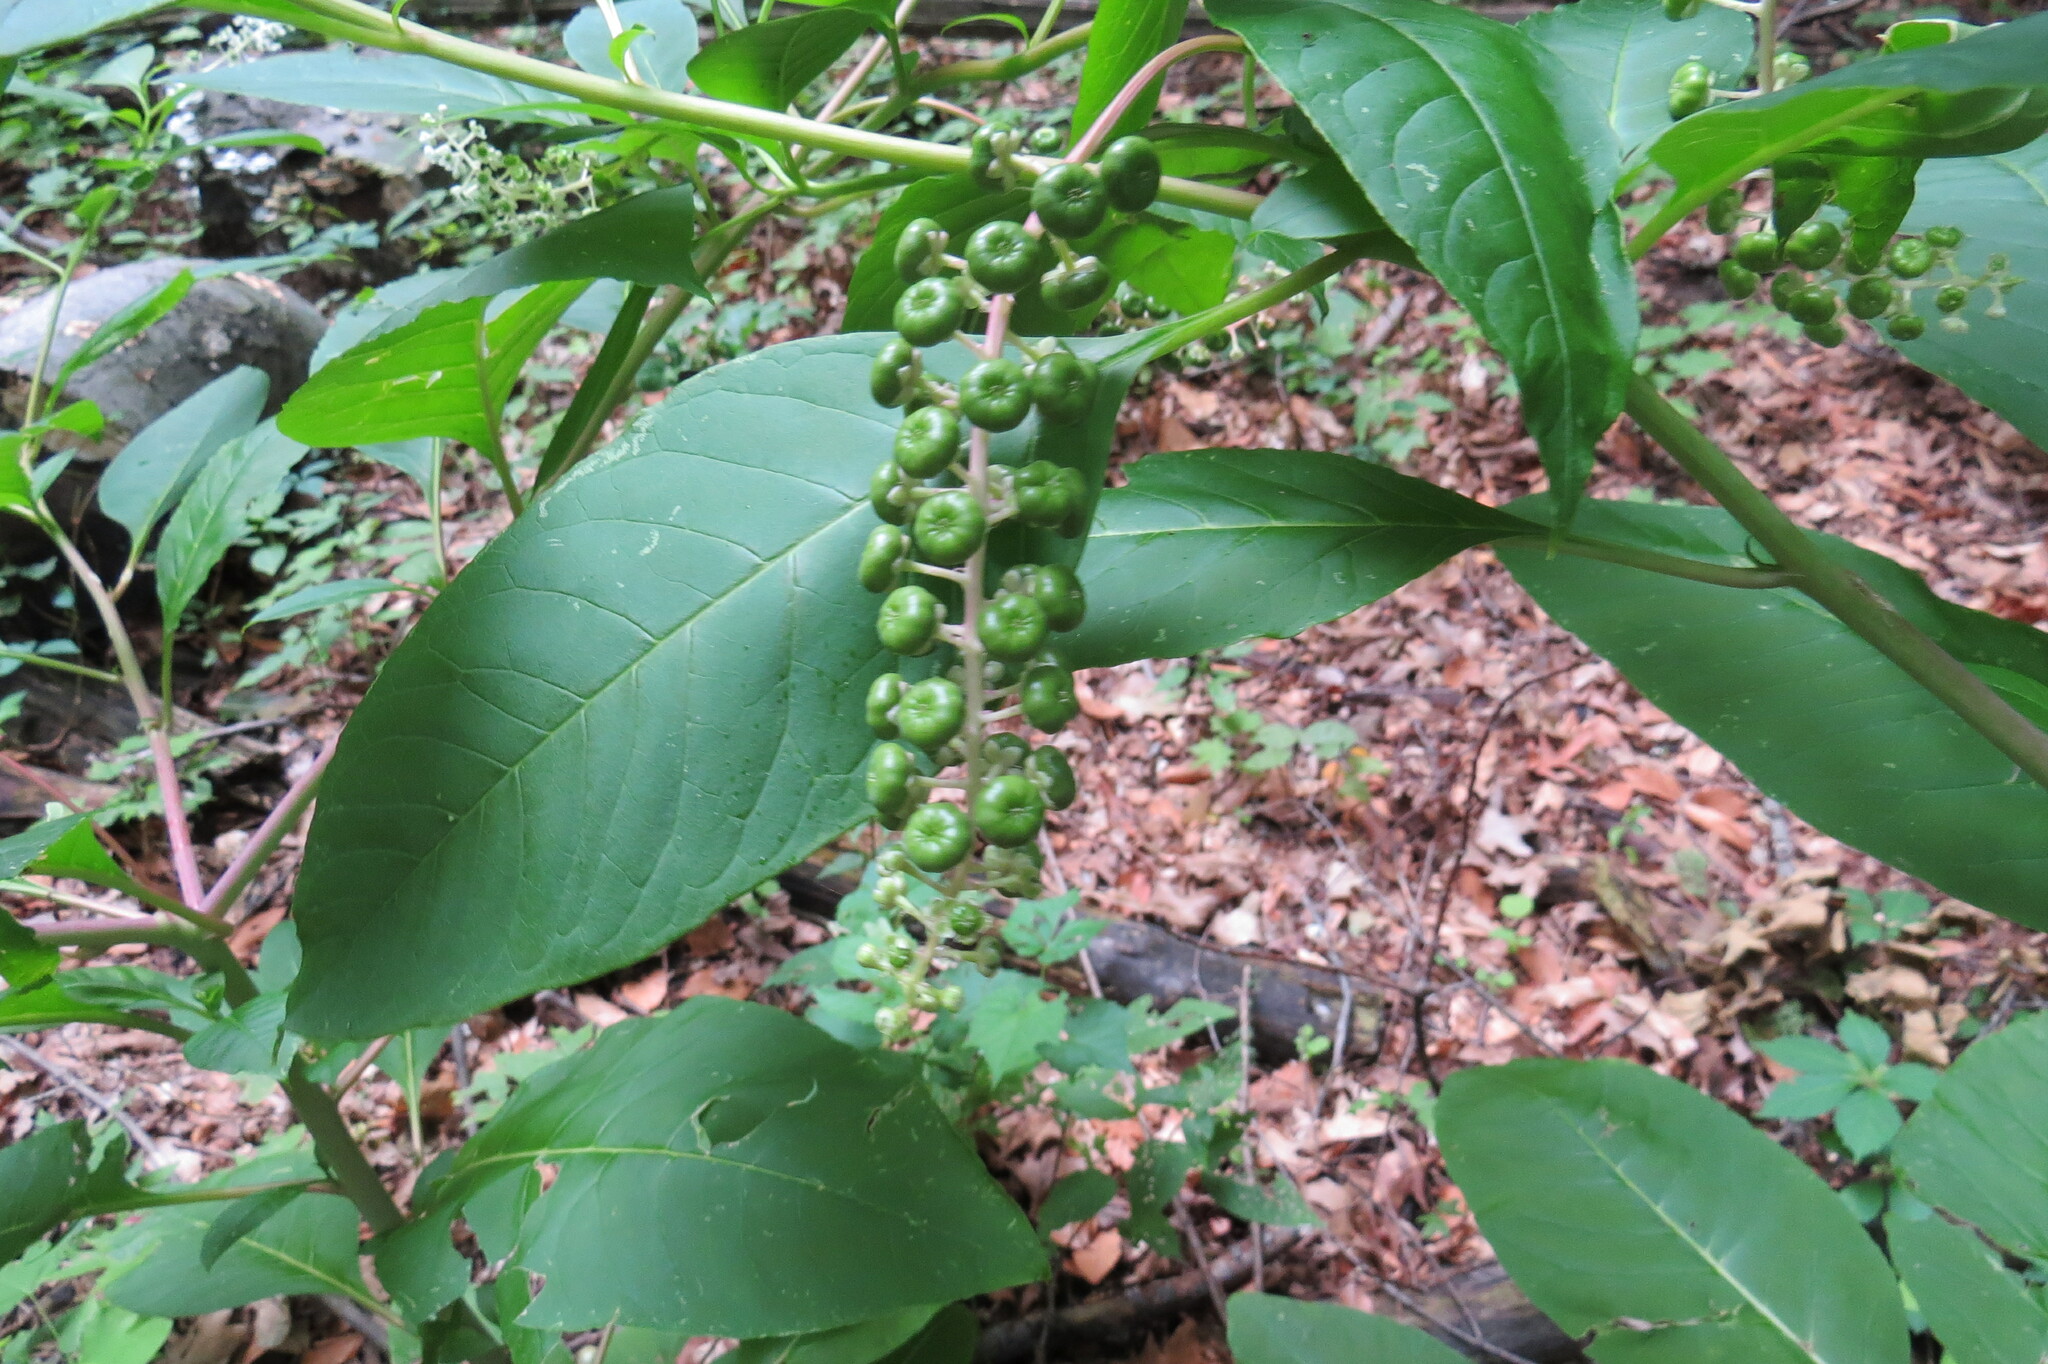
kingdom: Plantae
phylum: Tracheophyta
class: Magnoliopsida
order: Caryophyllales
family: Phytolaccaceae
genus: Phytolacca
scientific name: Phytolacca americana
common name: American pokeweed
